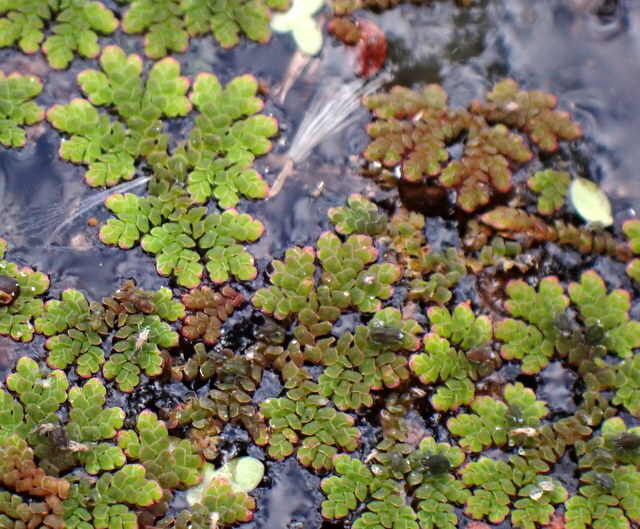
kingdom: Plantae
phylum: Tracheophyta
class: Polypodiopsida
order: Salviniales
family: Salviniaceae
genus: Azolla
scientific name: Azolla caroliniana
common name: Carolina mosquitofern
